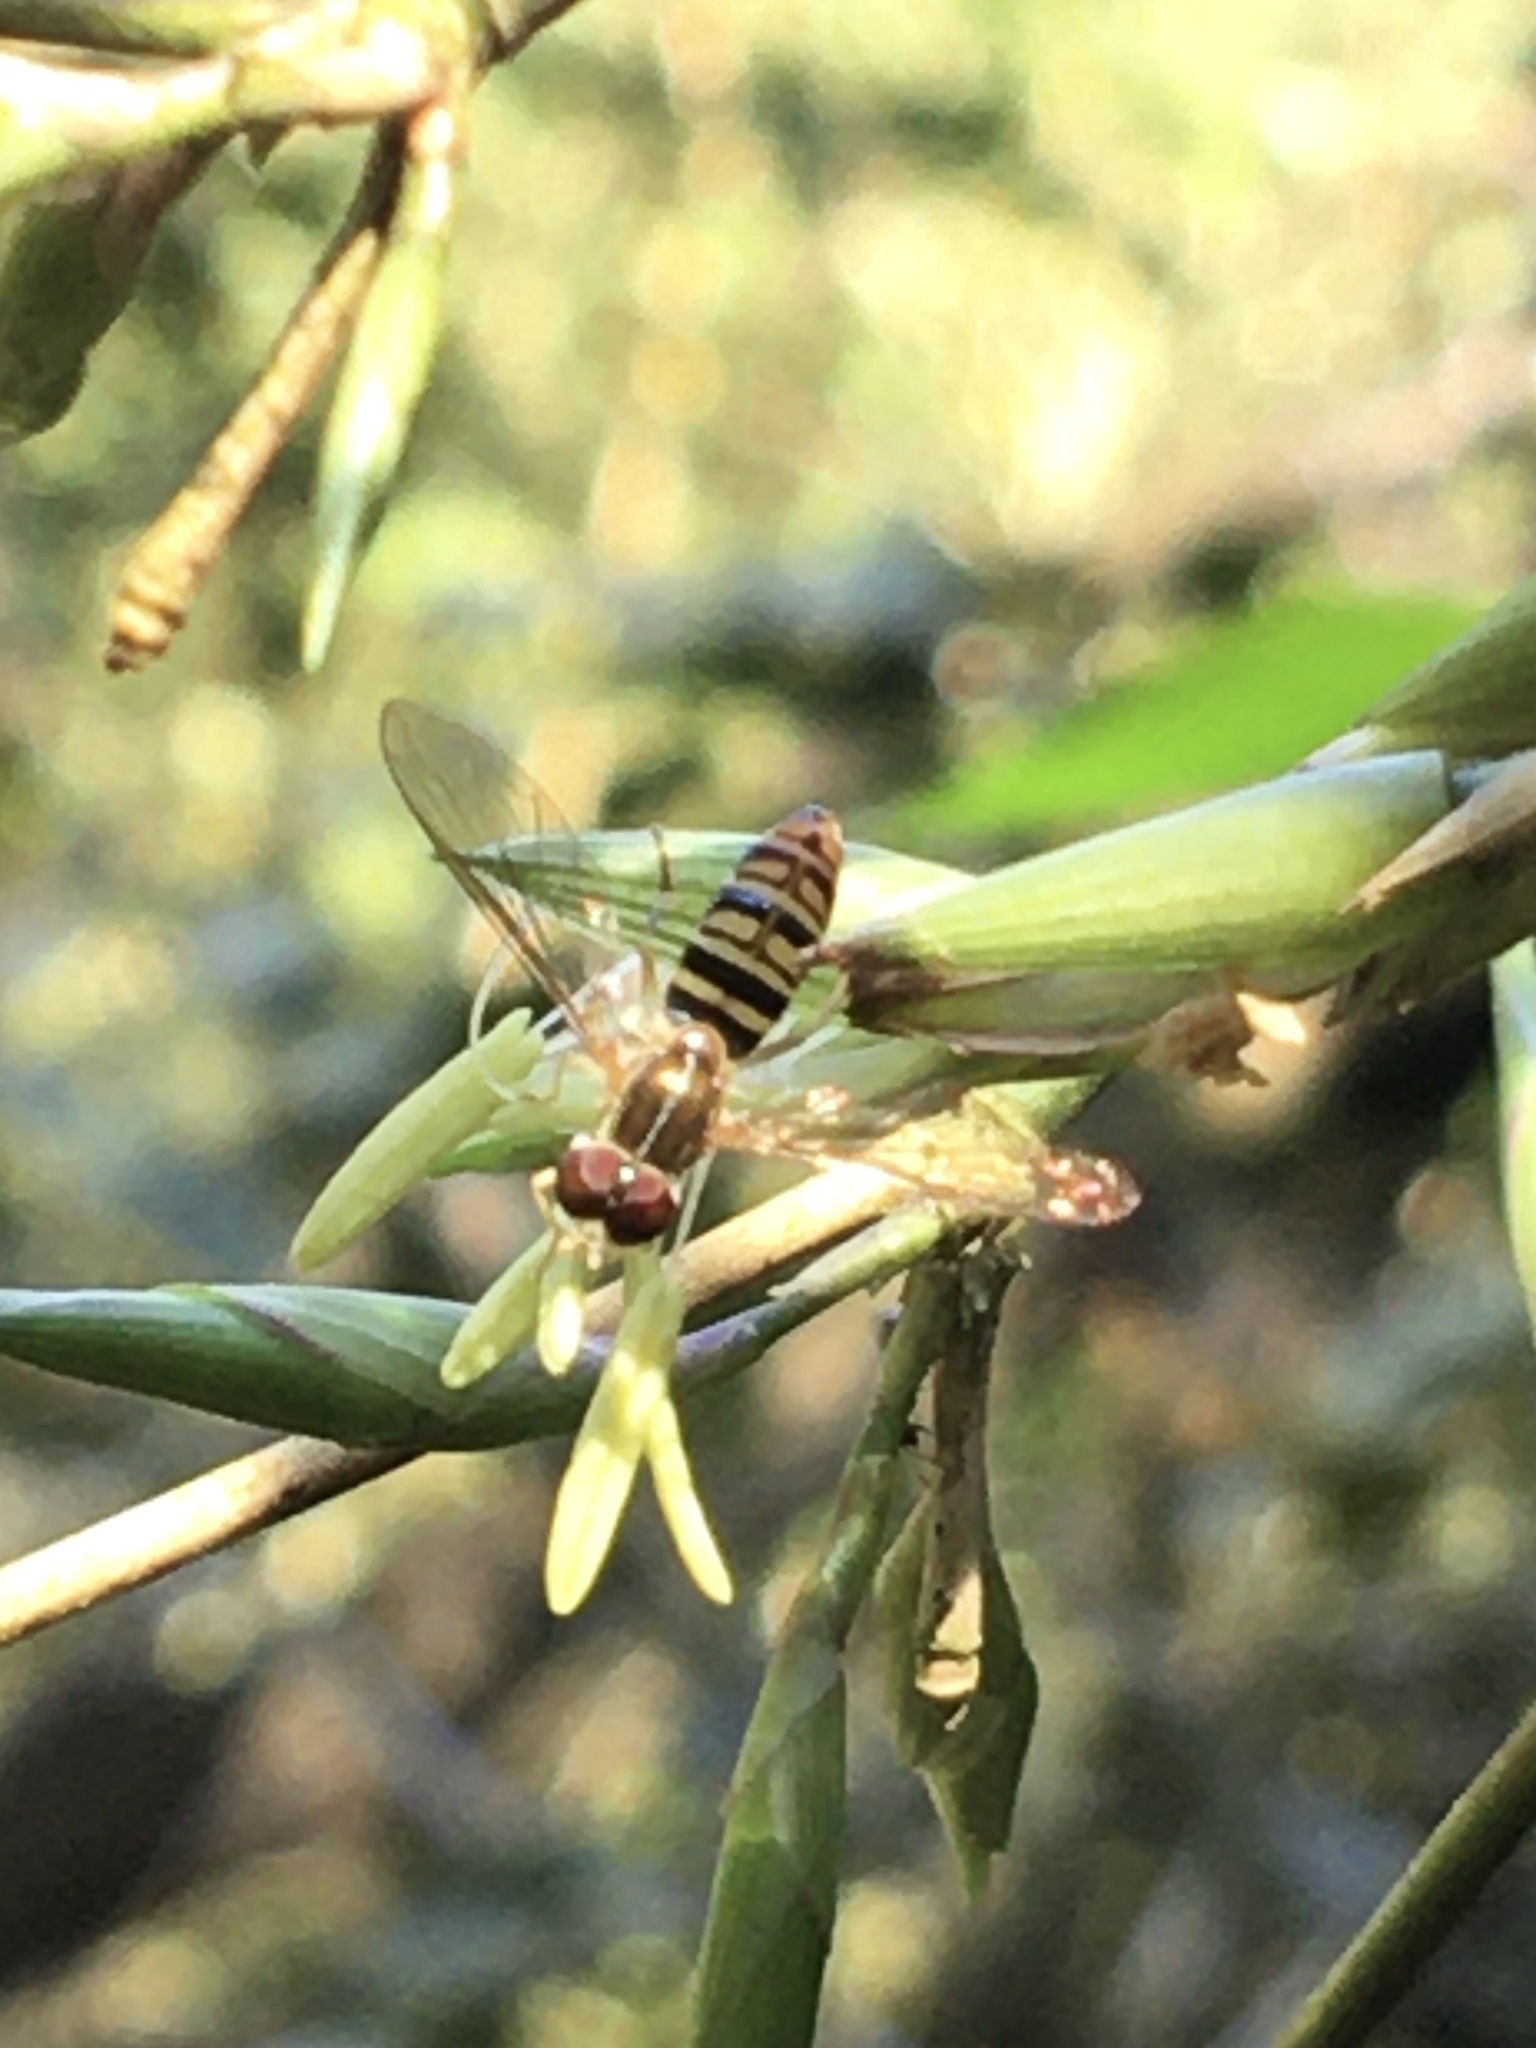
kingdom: Animalia
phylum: Arthropoda
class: Insecta
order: Diptera
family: Syrphidae
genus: Toxomerus
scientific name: Toxomerus politus
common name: Maize calligrapher
